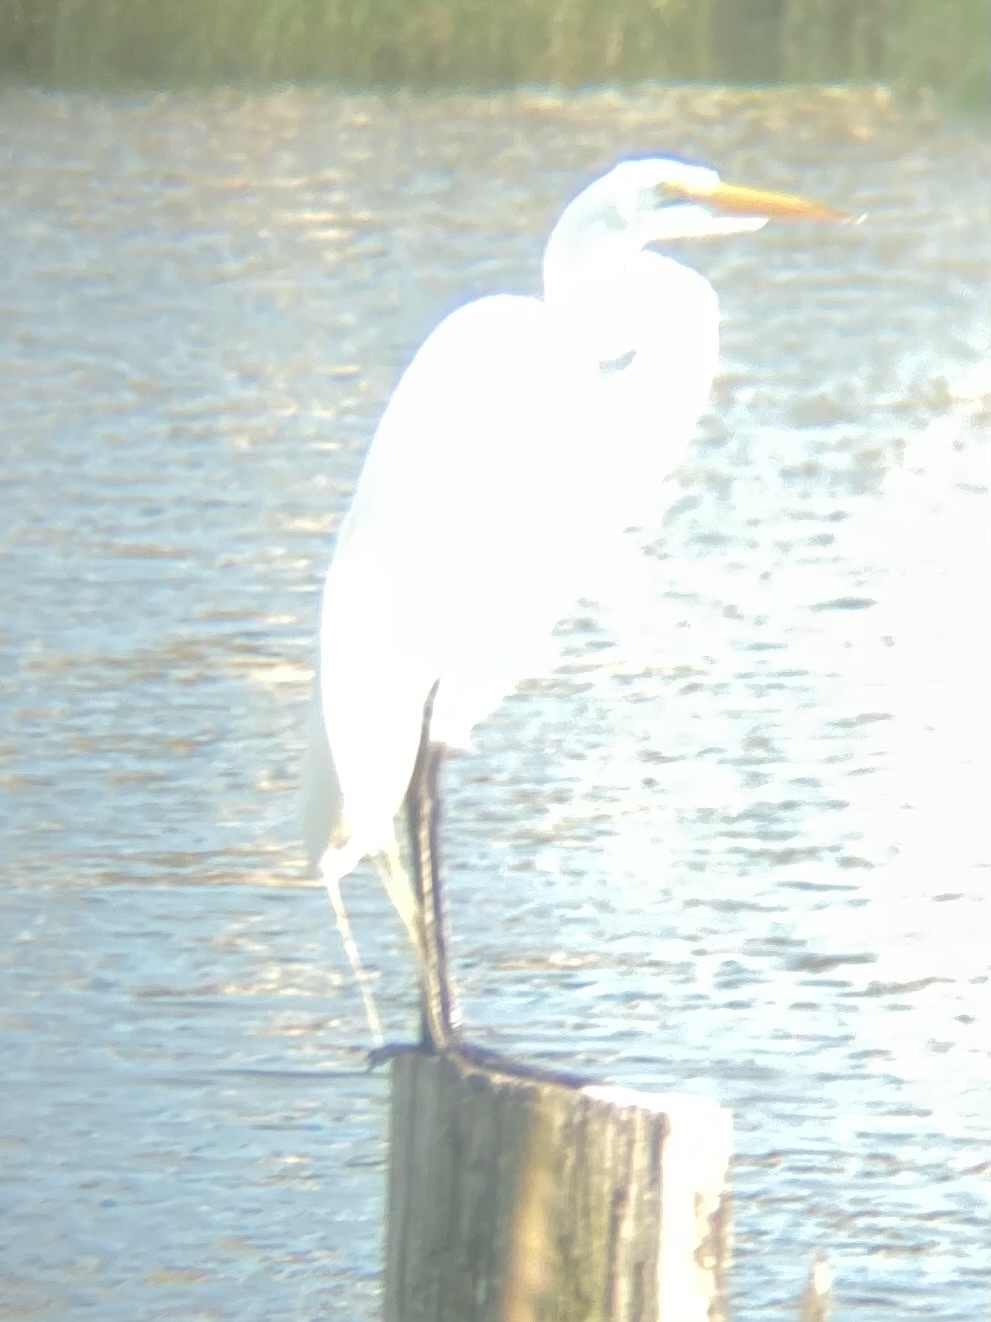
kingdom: Animalia
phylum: Chordata
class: Aves
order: Pelecaniformes
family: Ardeidae
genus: Ardea
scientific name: Ardea alba
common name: Great egret
